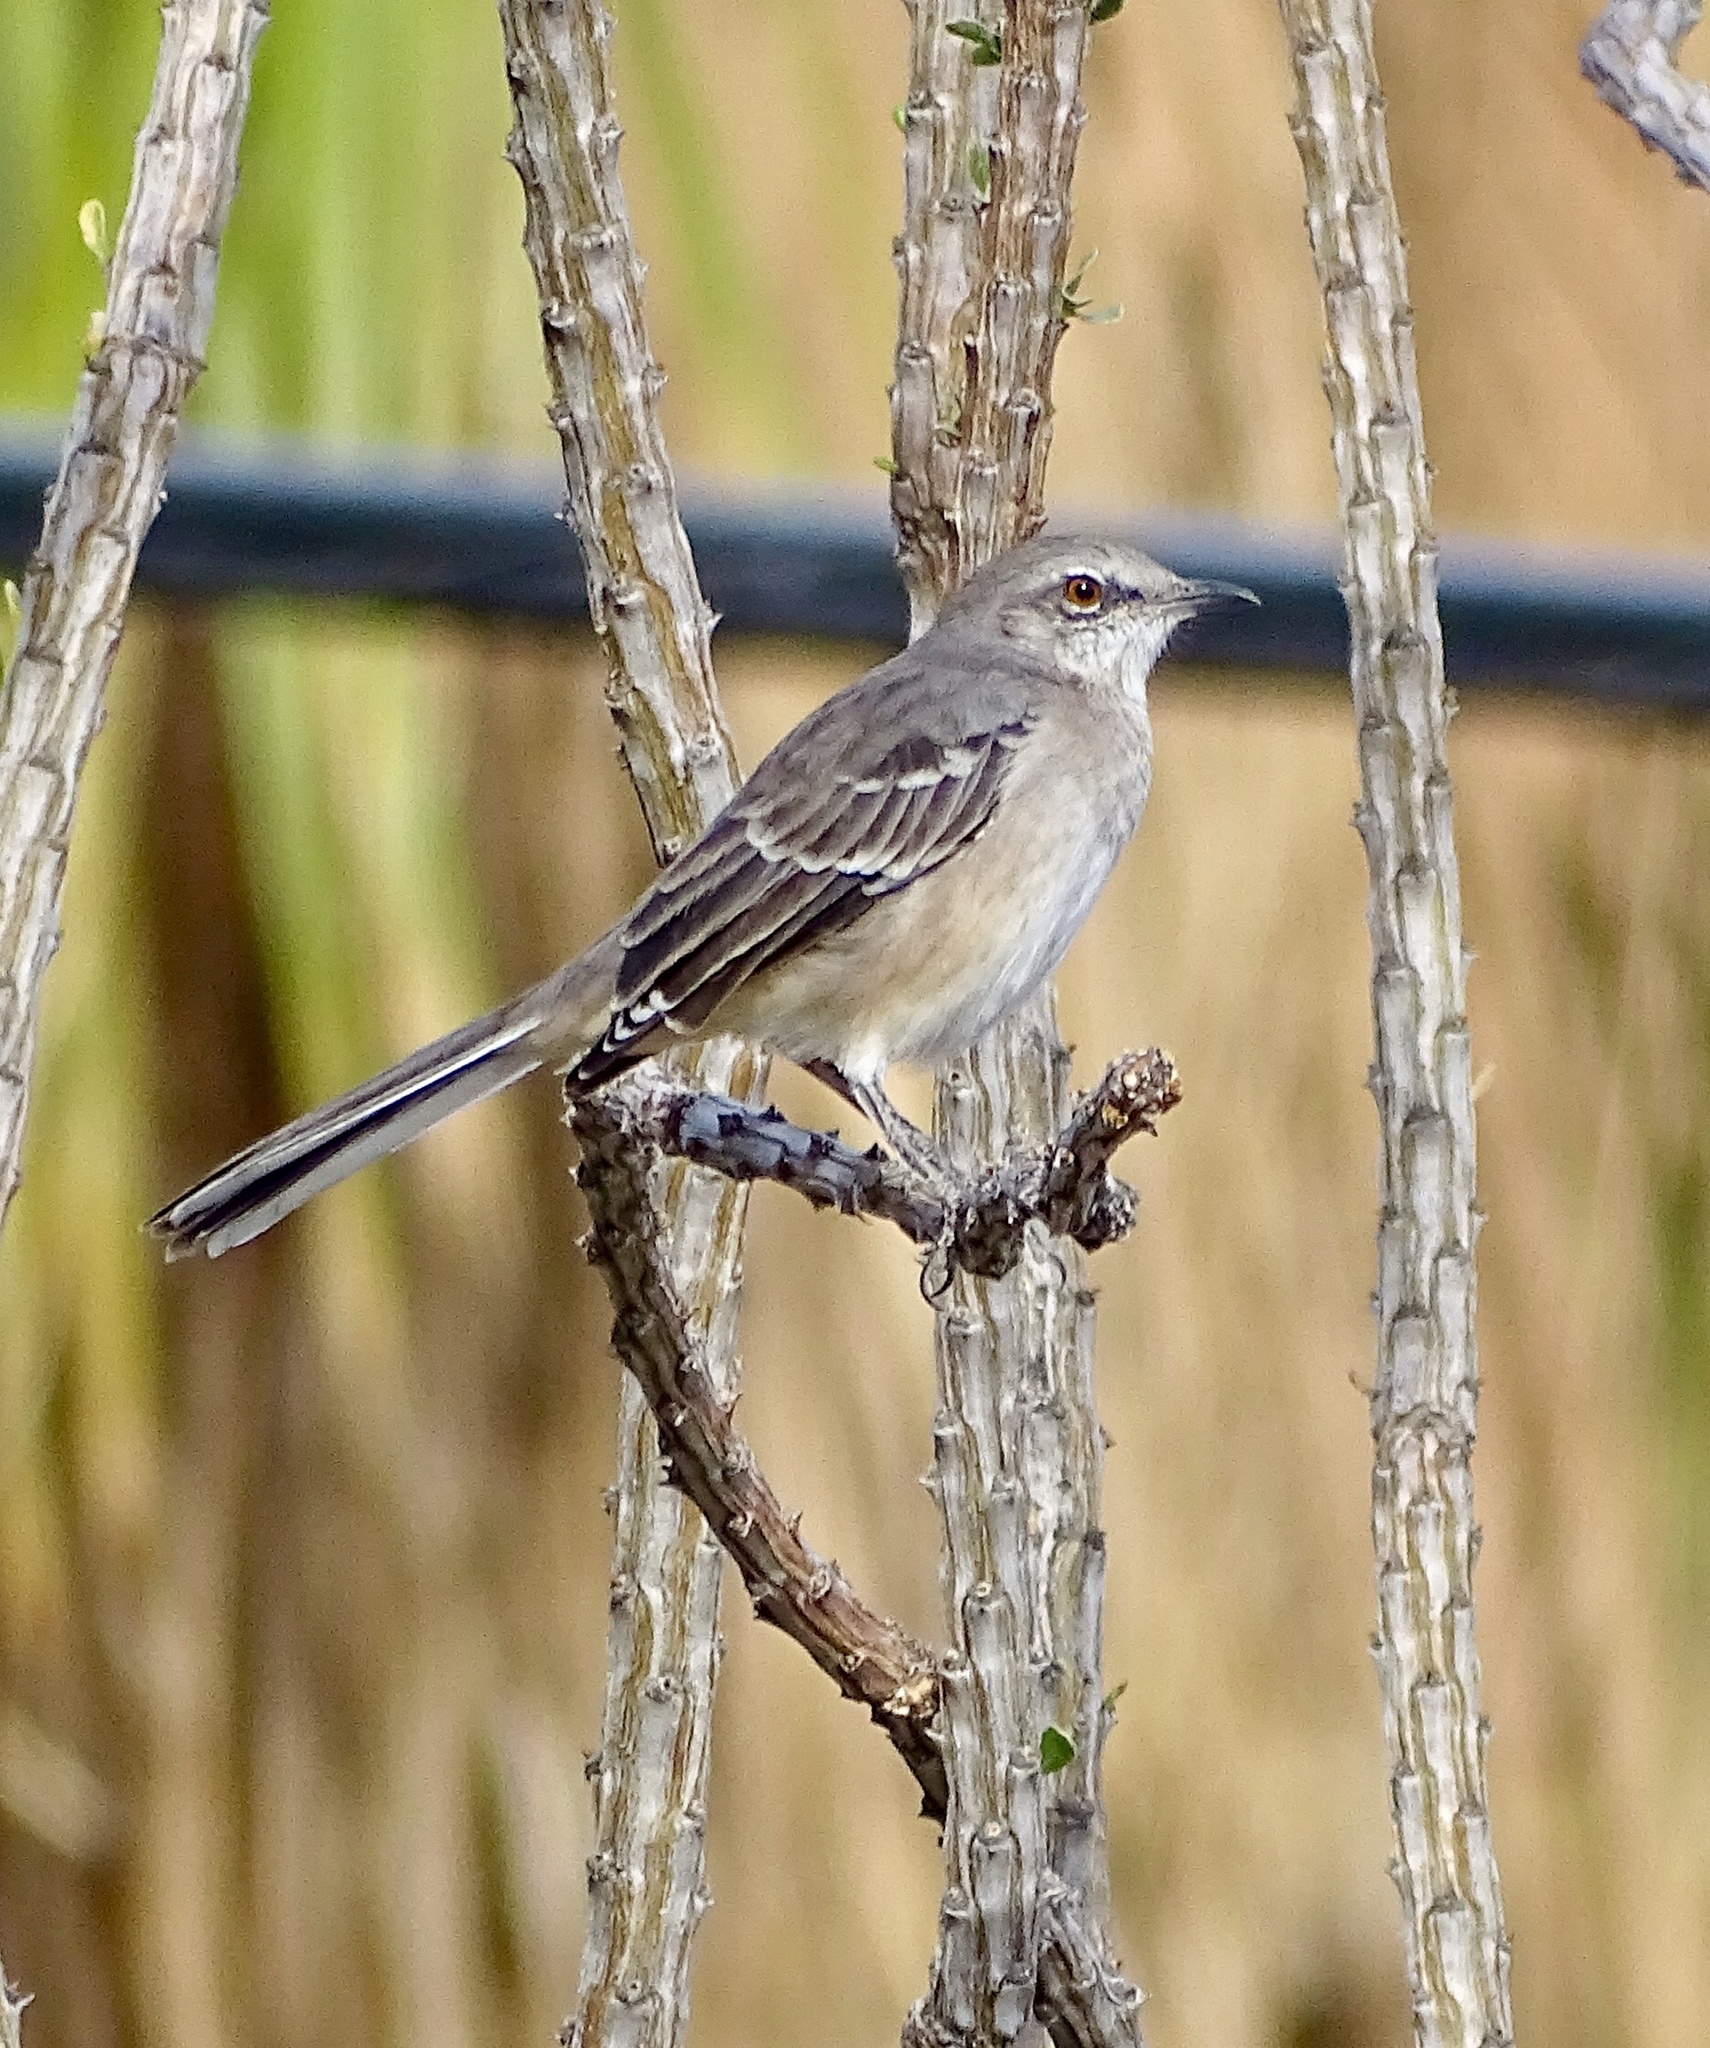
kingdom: Animalia
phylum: Chordata
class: Aves
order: Passeriformes
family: Mimidae
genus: Mimus
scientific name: Mimus polyglottos
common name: Northern mockingbird
